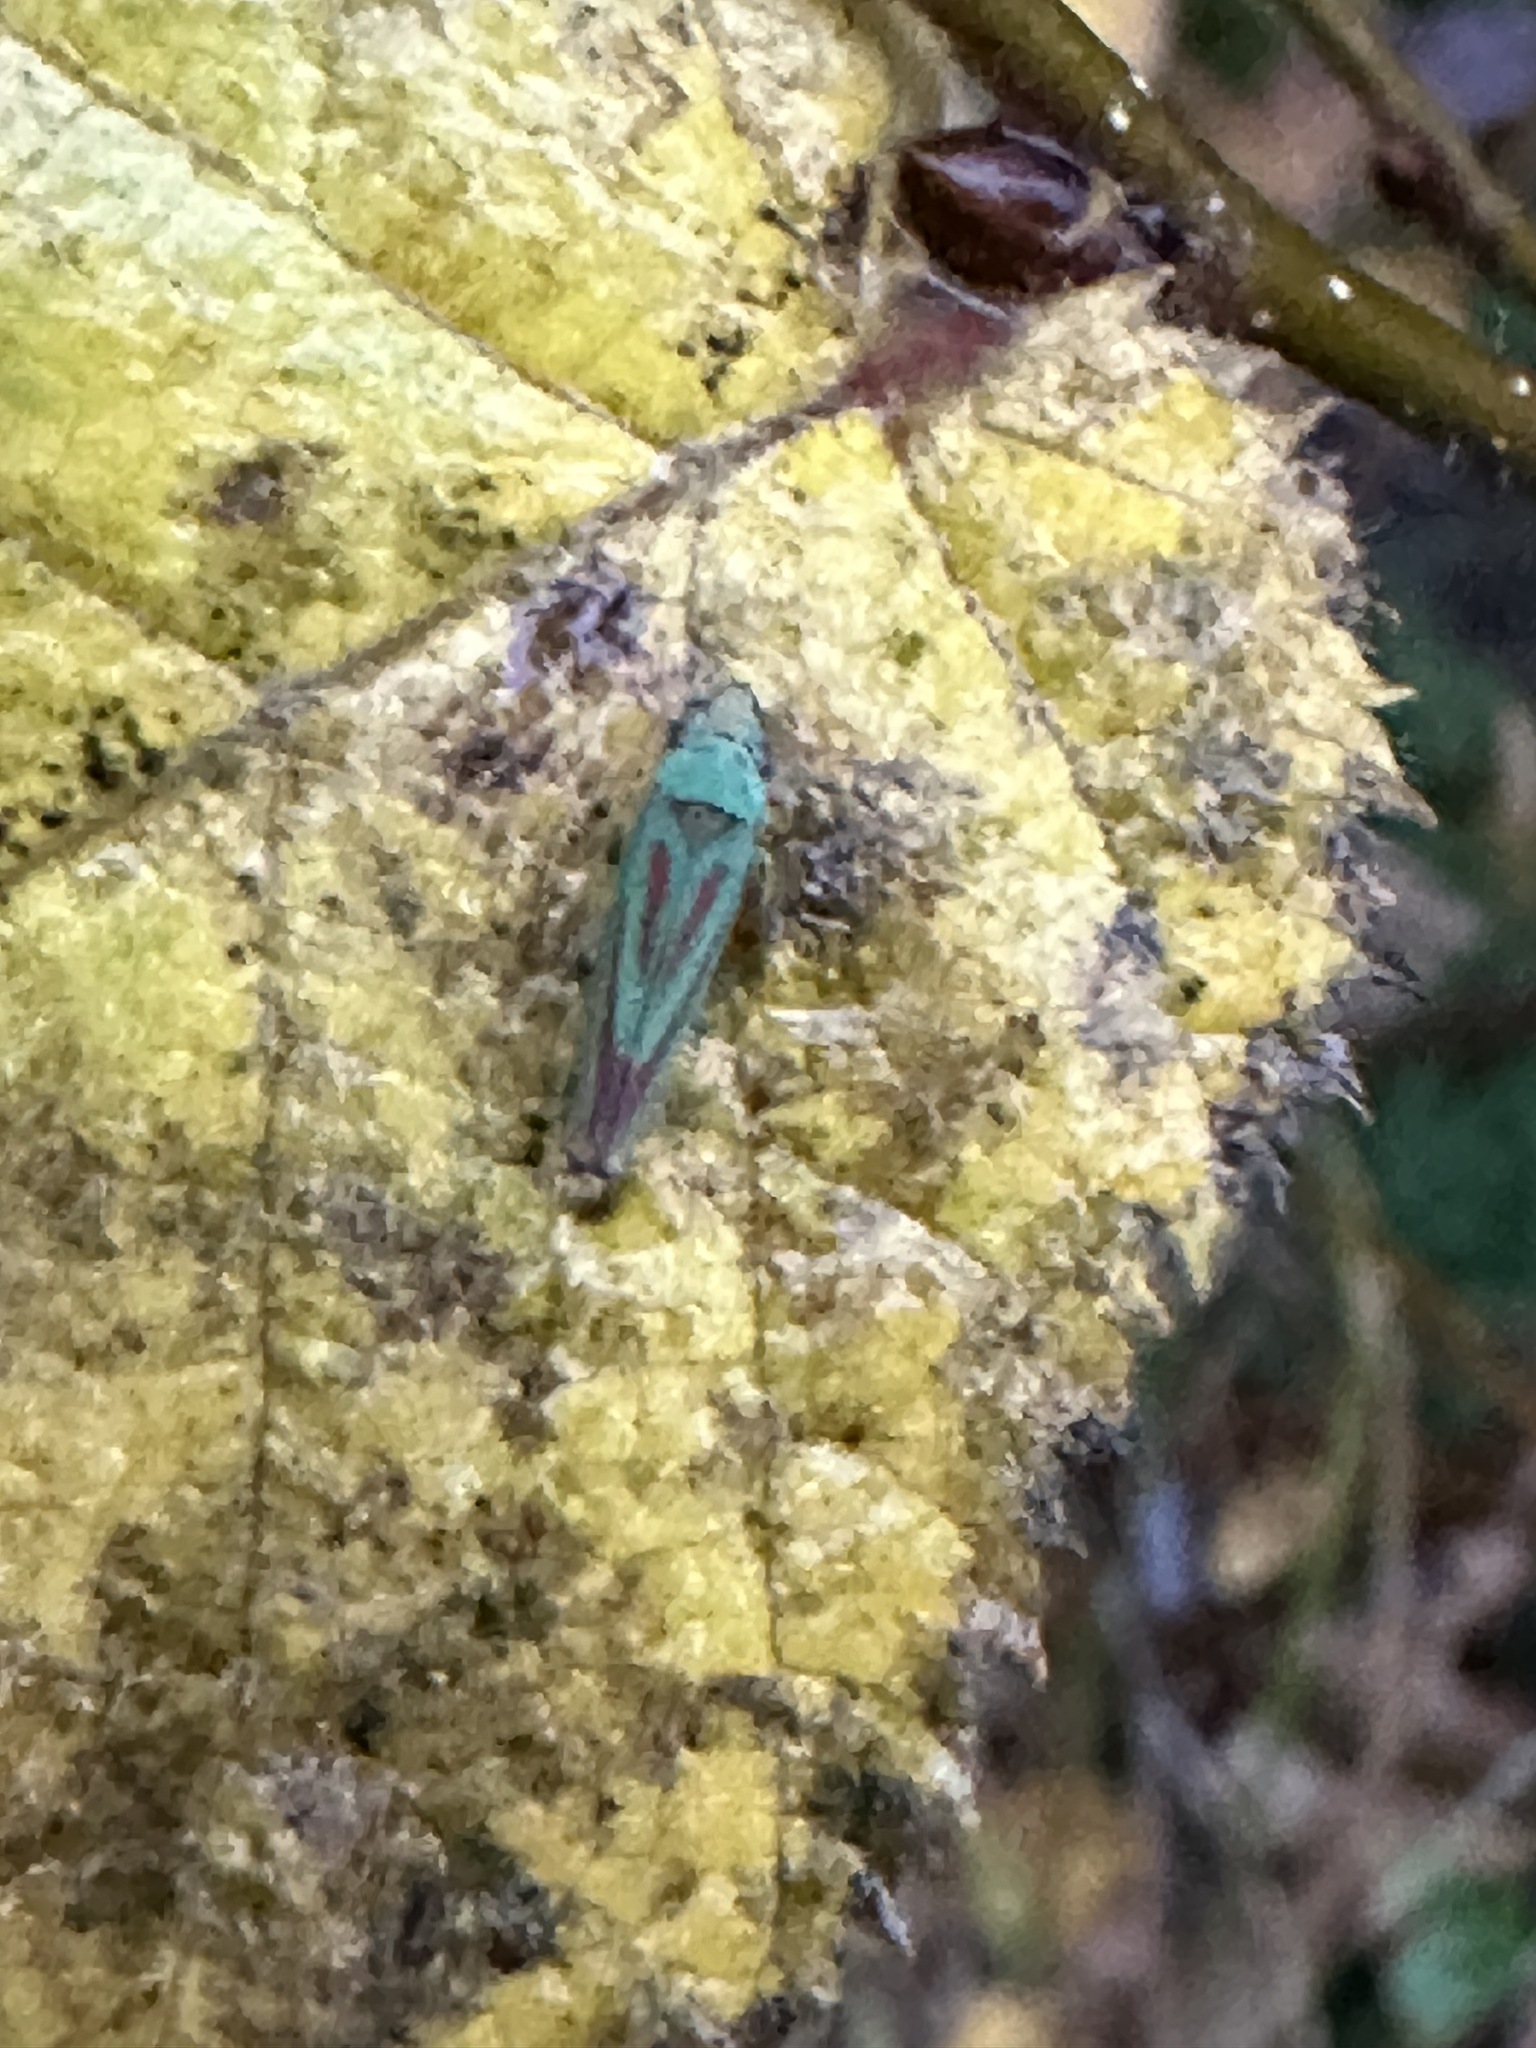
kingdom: Animalia
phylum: Arthropoda
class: Insecta
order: Hemiptera
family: Cicadellidae
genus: Graphocephala
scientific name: Graphocephala fennahi
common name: Rhododendron leafhopper
